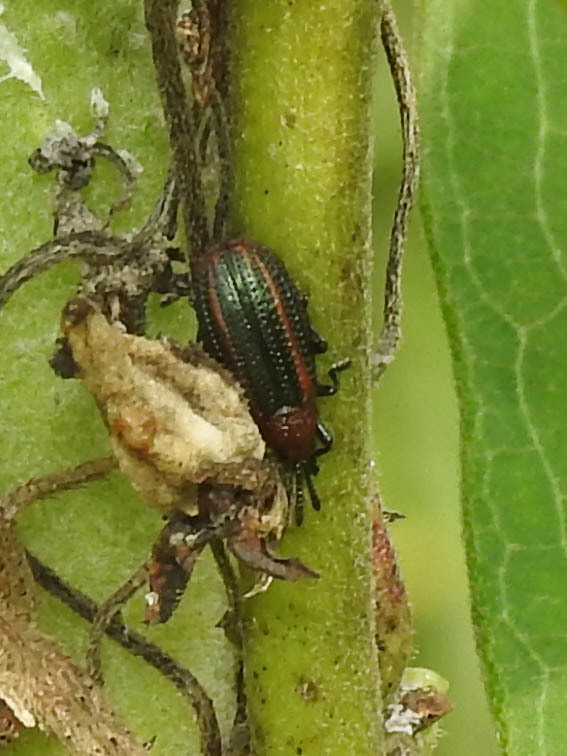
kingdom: Animalia
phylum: Arthropoda
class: Insecta
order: Coleoptera
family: Chrysomelidae
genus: Microrhopala
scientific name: Microrhopala vittata
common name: Goldenrod leaf miner beetle
